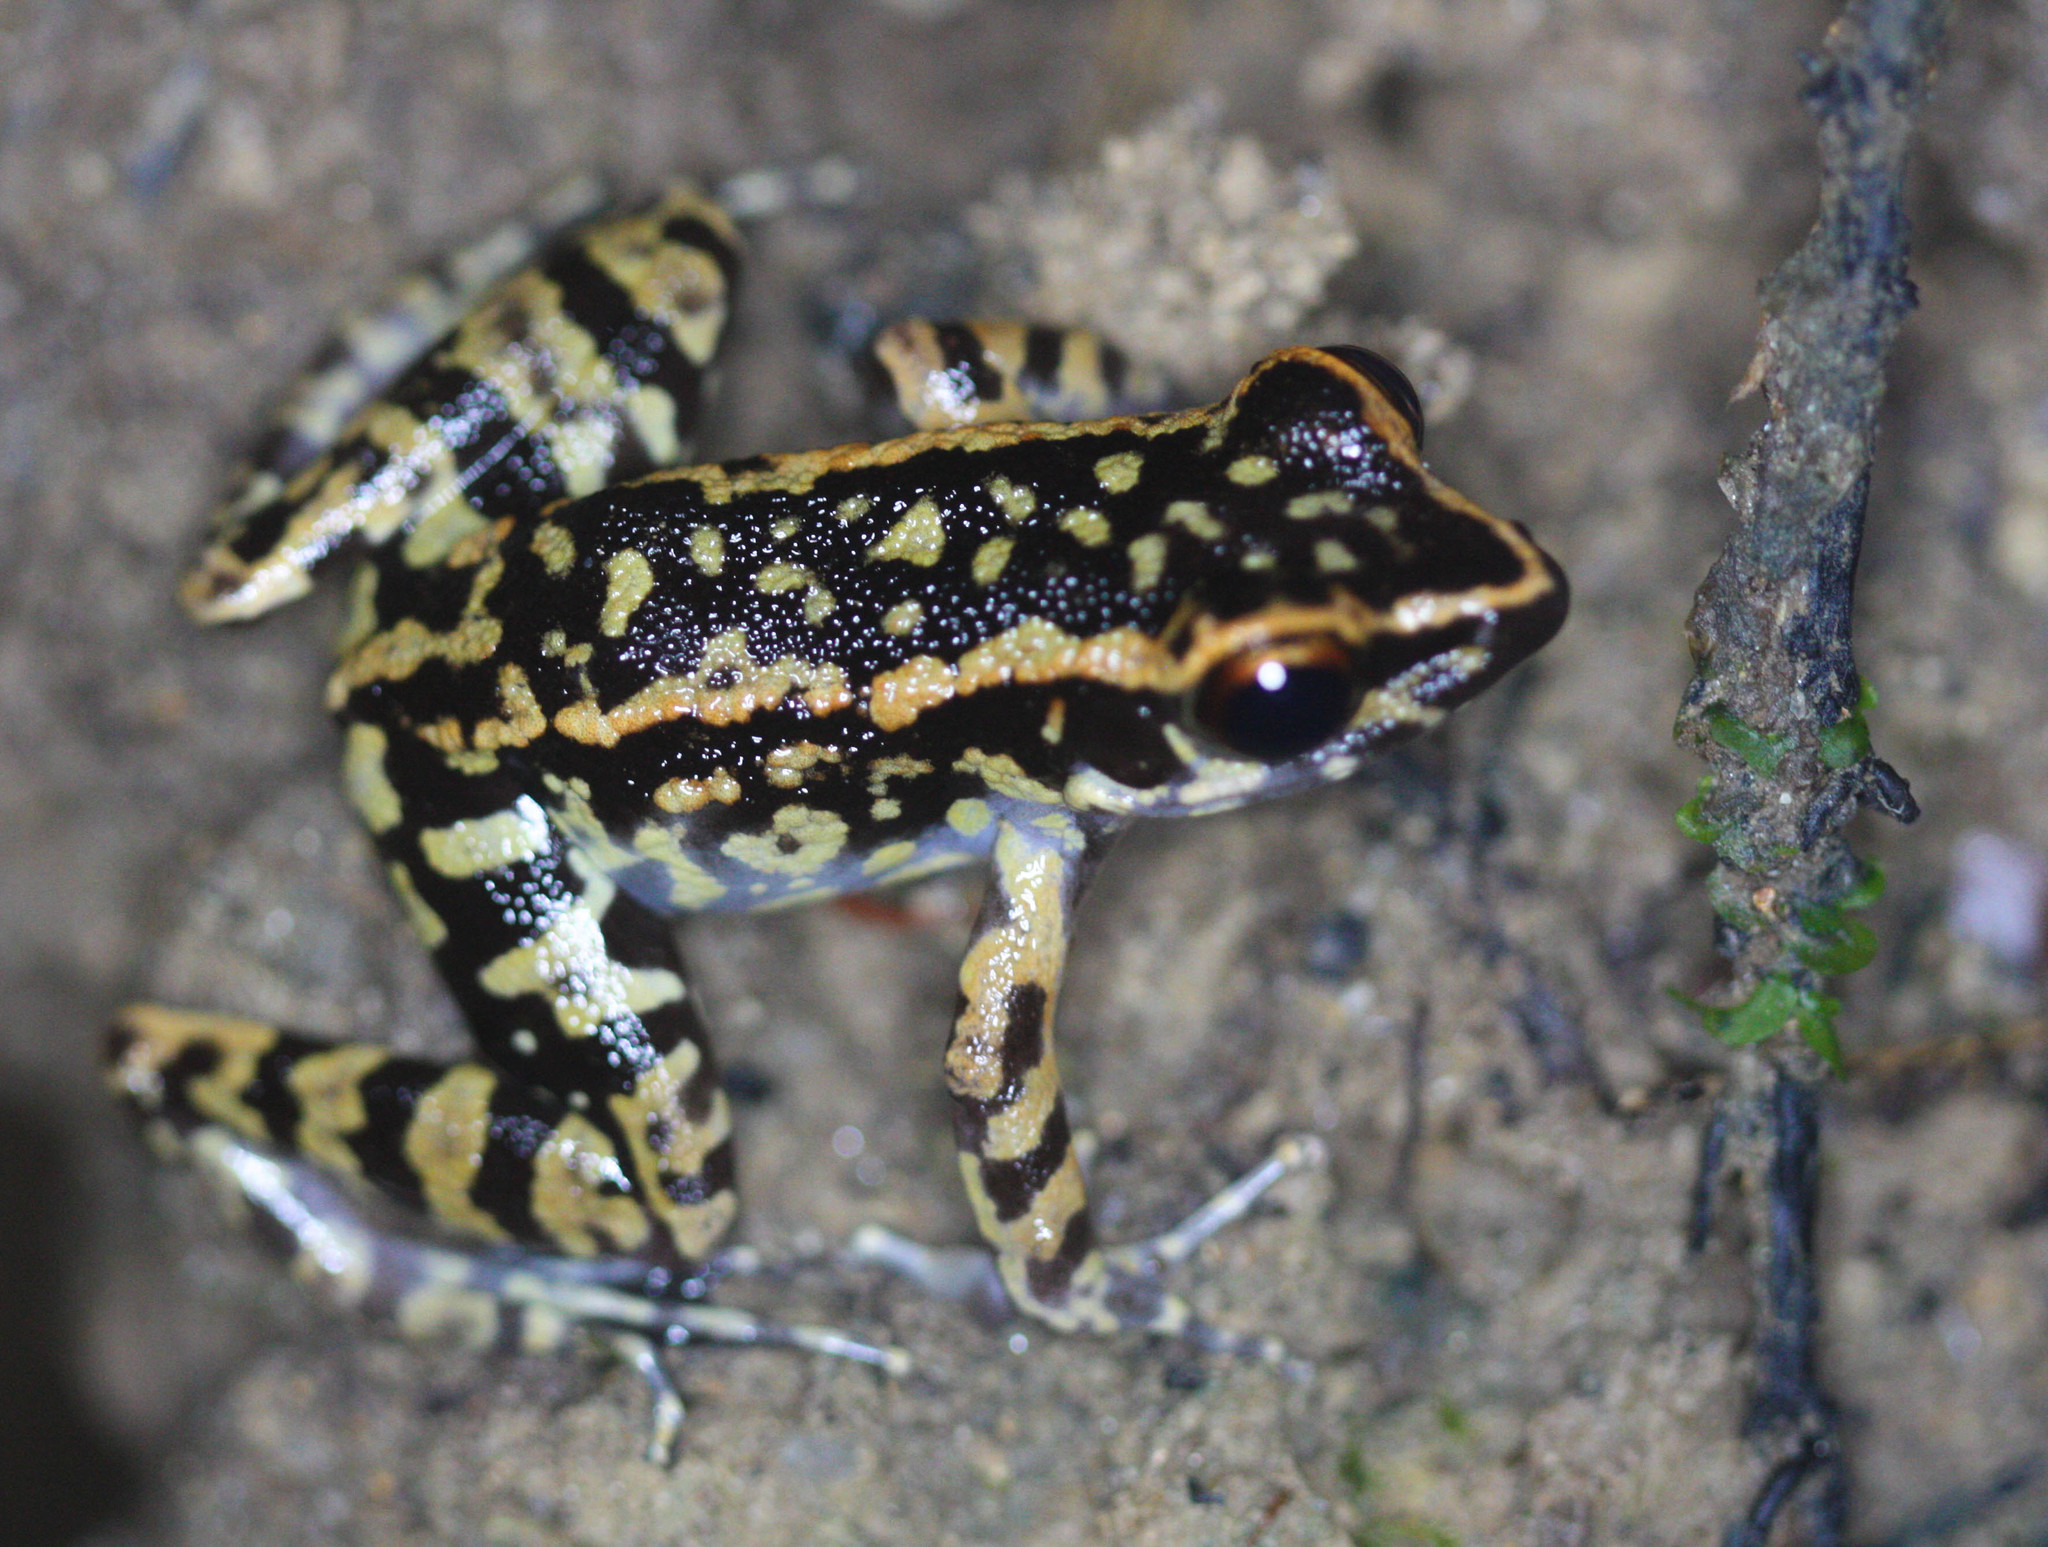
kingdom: Animalia
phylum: Chordata
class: Amphibia
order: Anura
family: Ranidae
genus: Pulchrana
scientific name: Pulchrana signata
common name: Variable-backed frog
